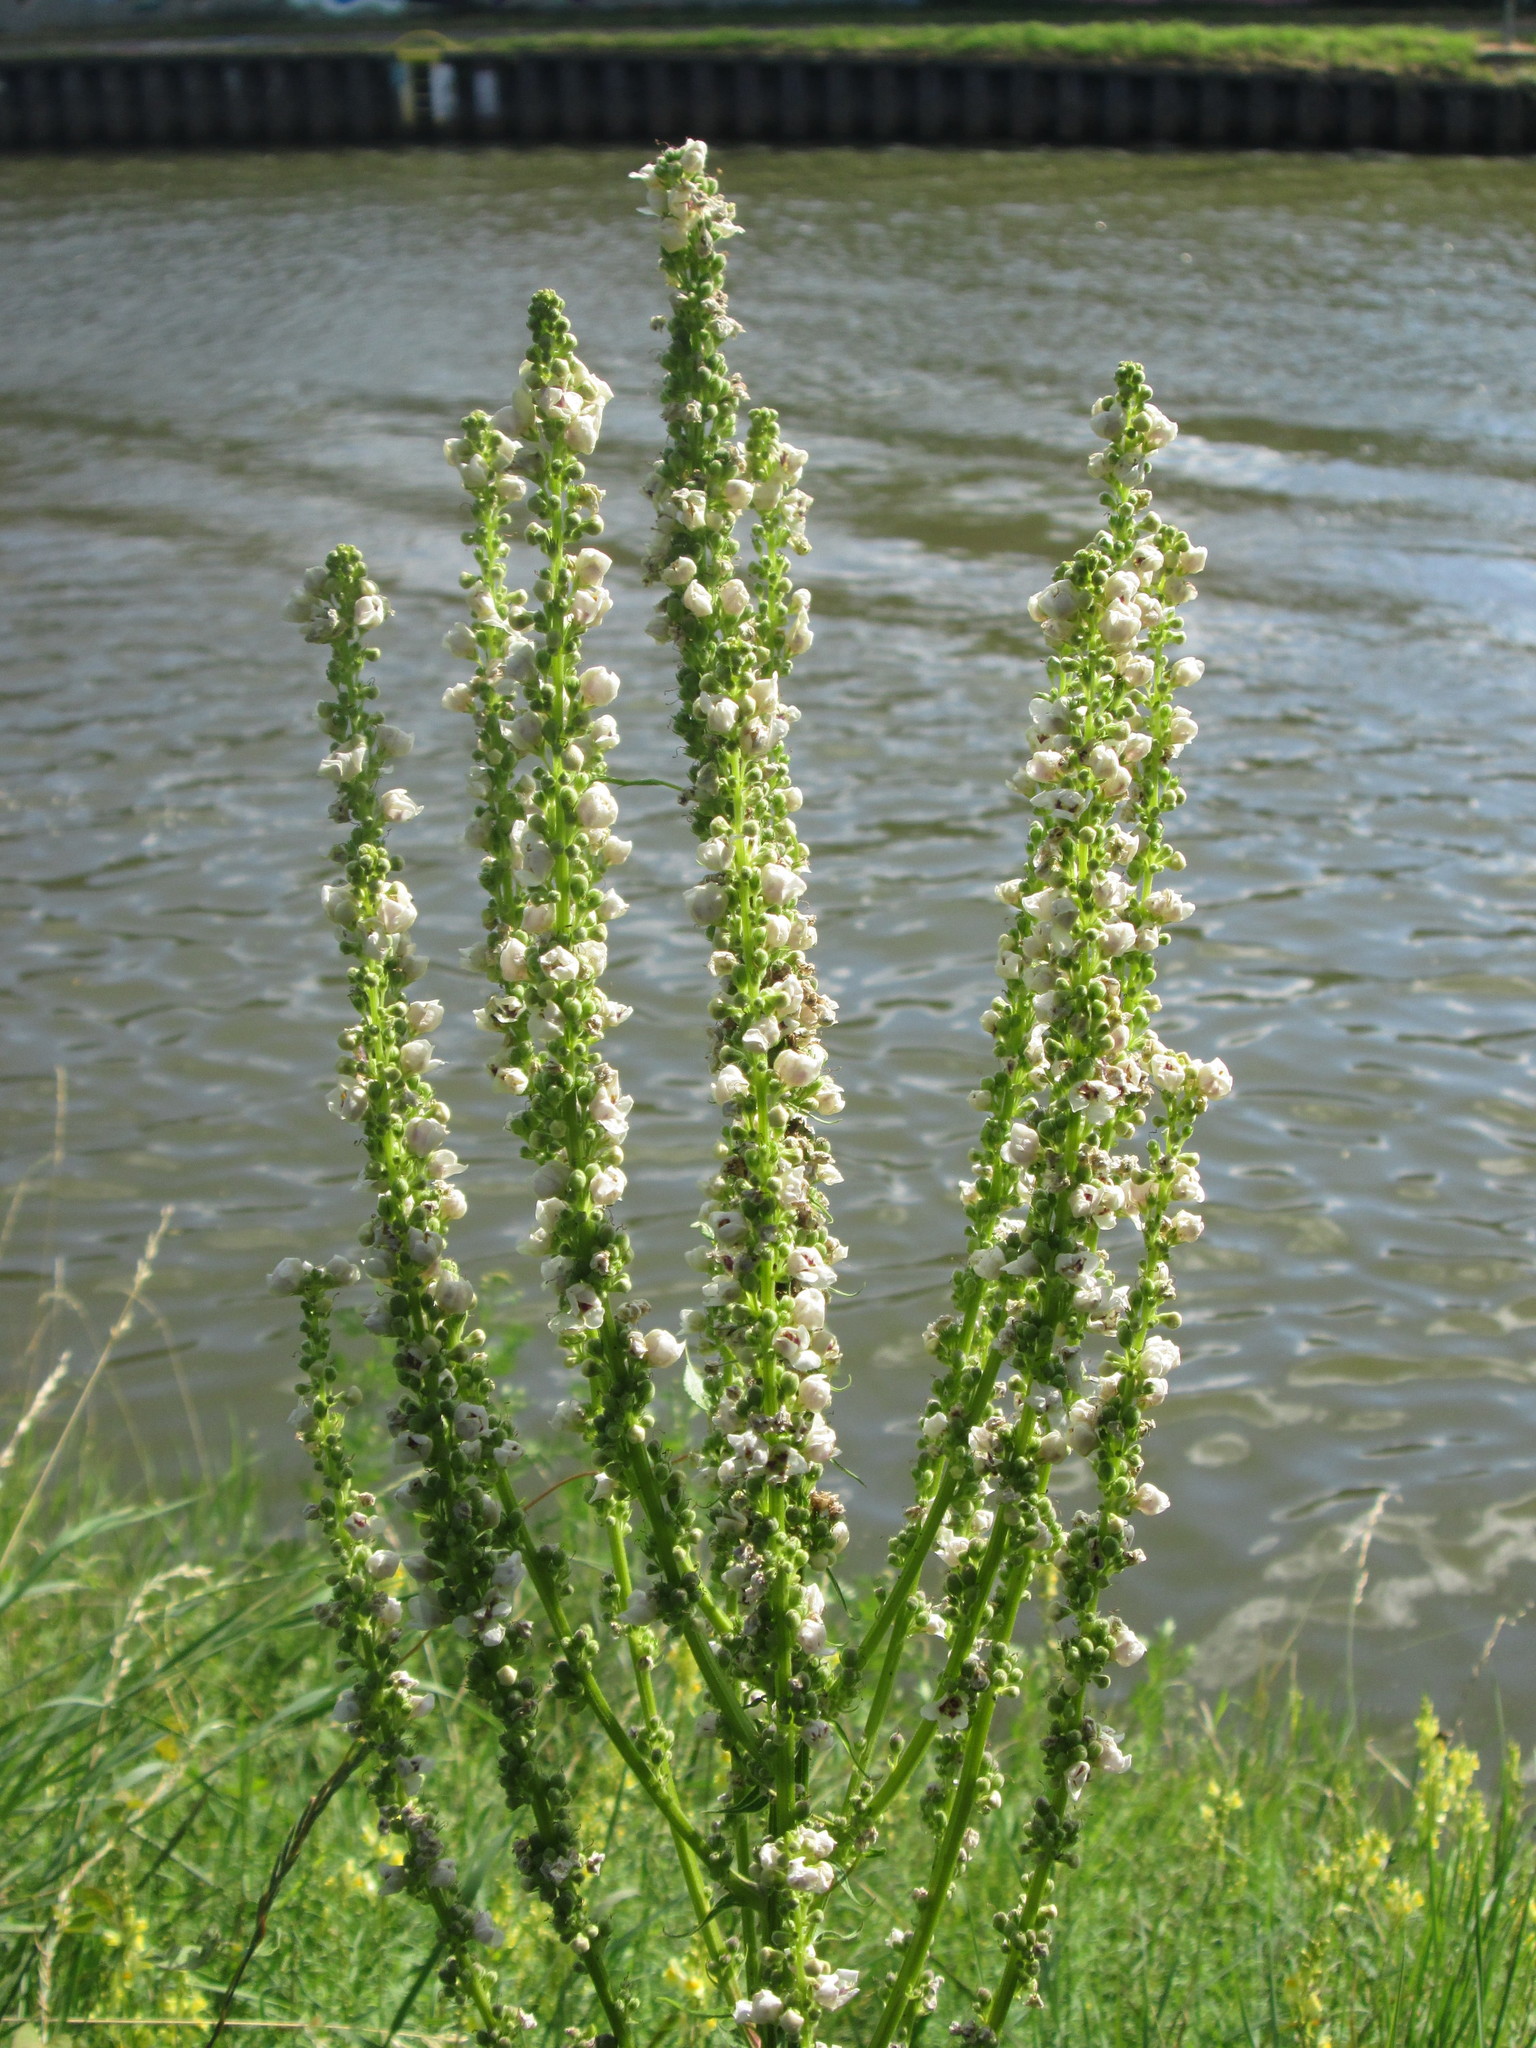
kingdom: Plantae
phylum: Tracheophyta
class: Magnoliopsida
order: Lamiales
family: Scrophulariaceae
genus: Verbascum
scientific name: Verbascum lychnitis
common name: White mullein
